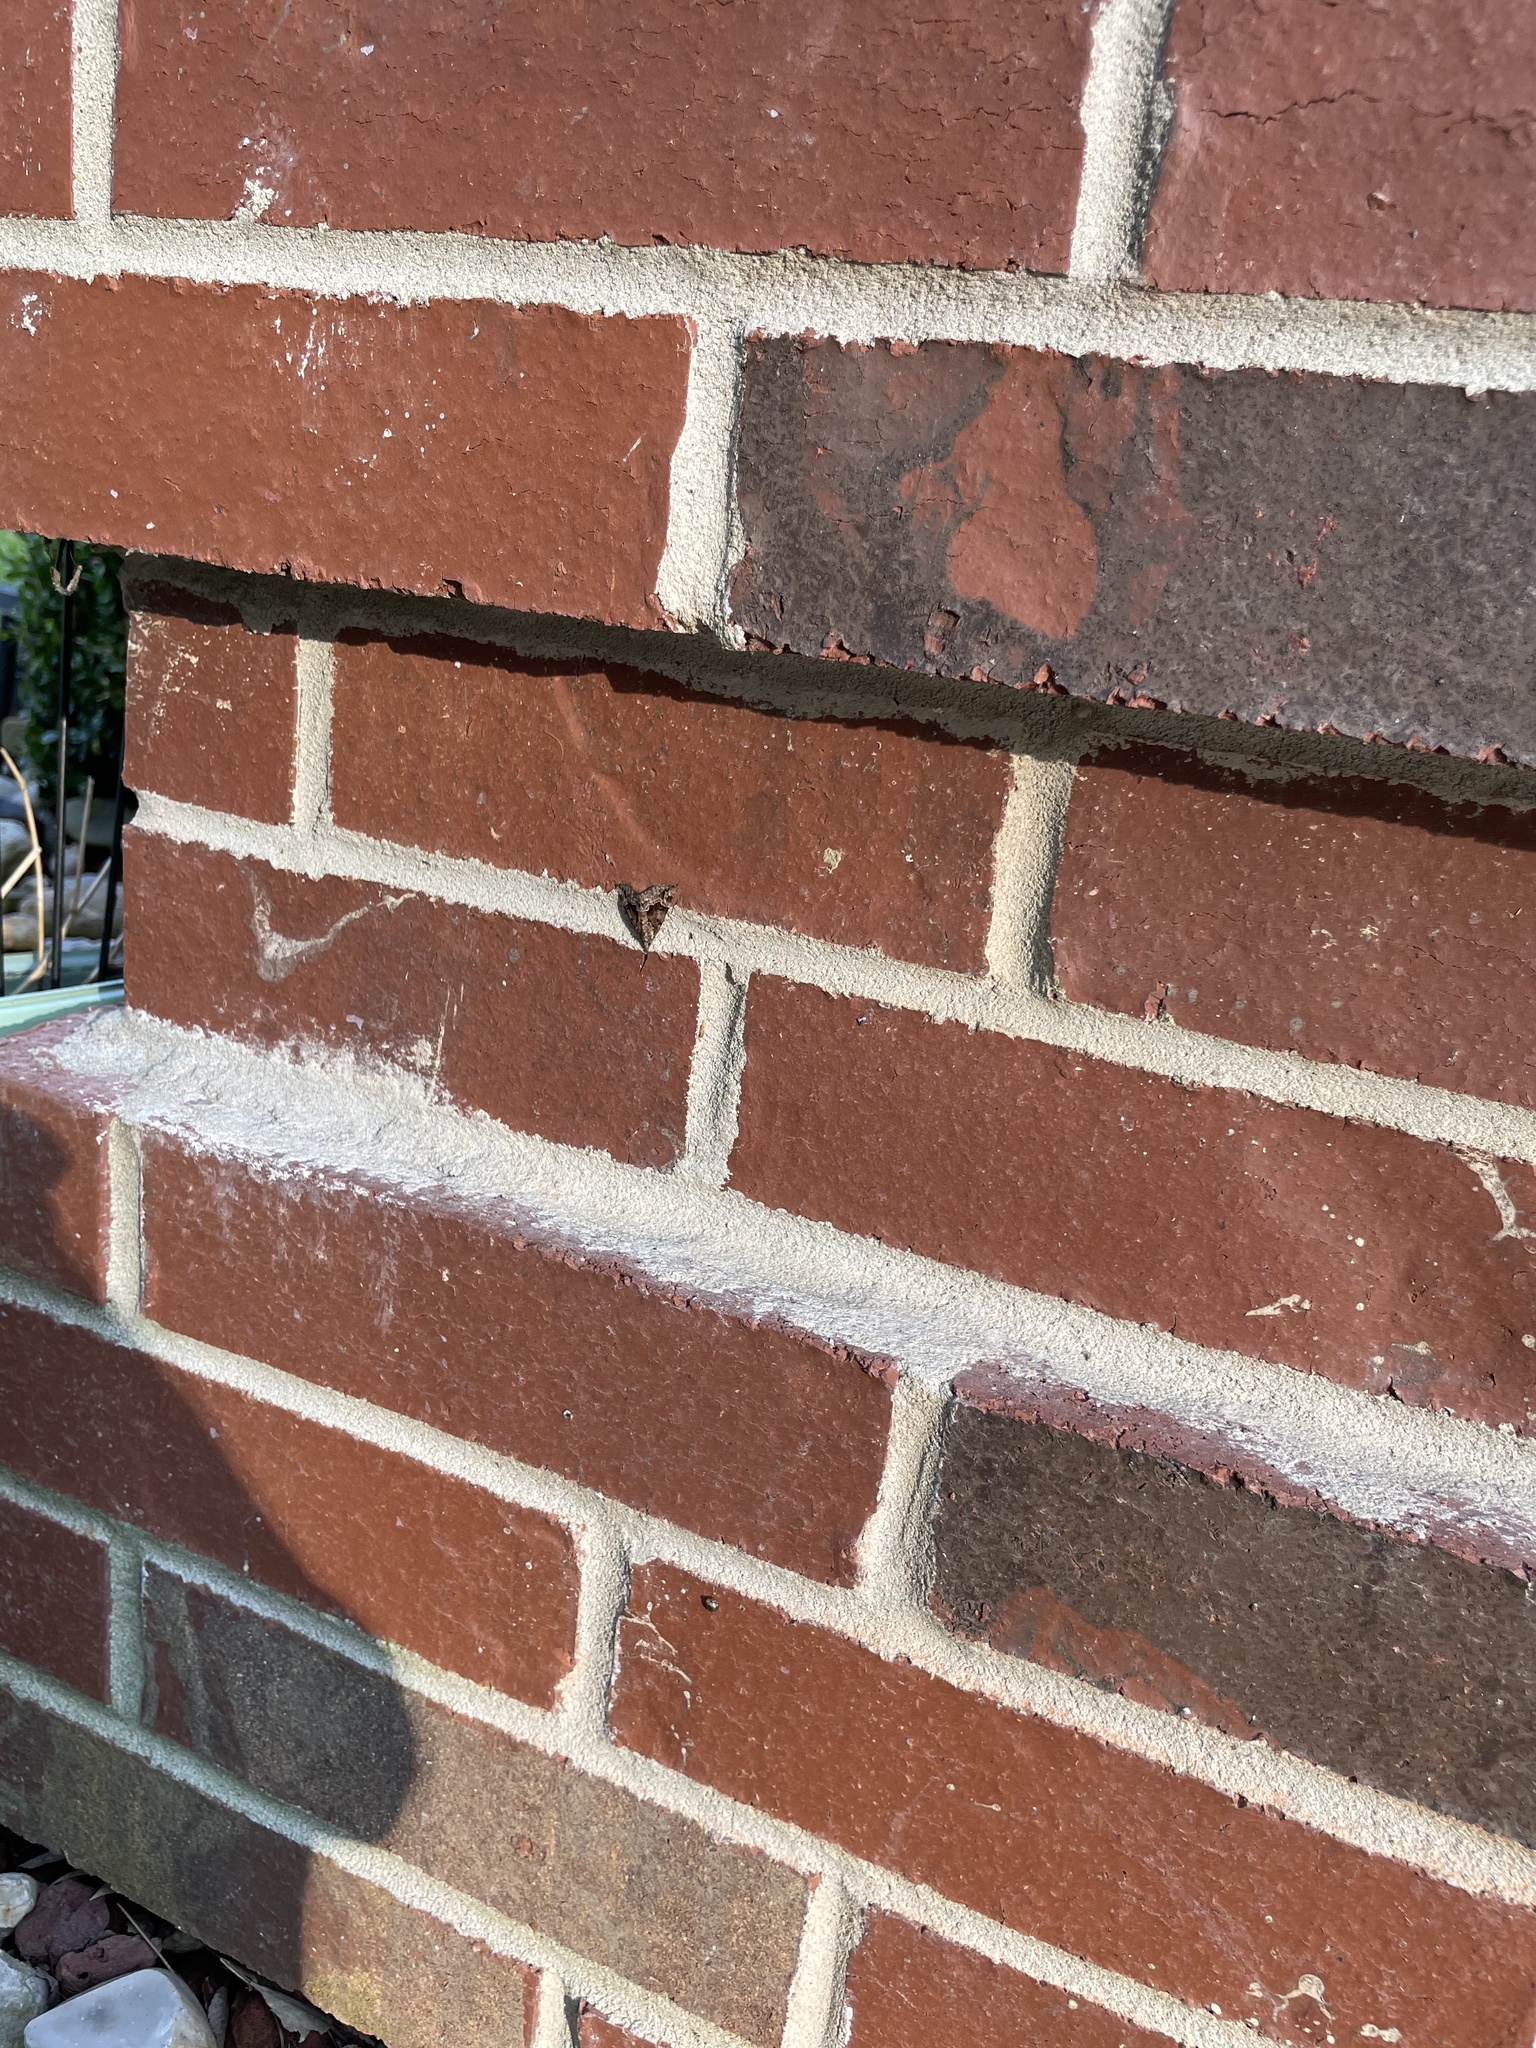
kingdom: Animalia
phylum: Arthropoda
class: Insecta
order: Lepidoptera
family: Erebidae
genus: Hypena
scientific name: Hypena palparia
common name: Mottled bomolocha moth
